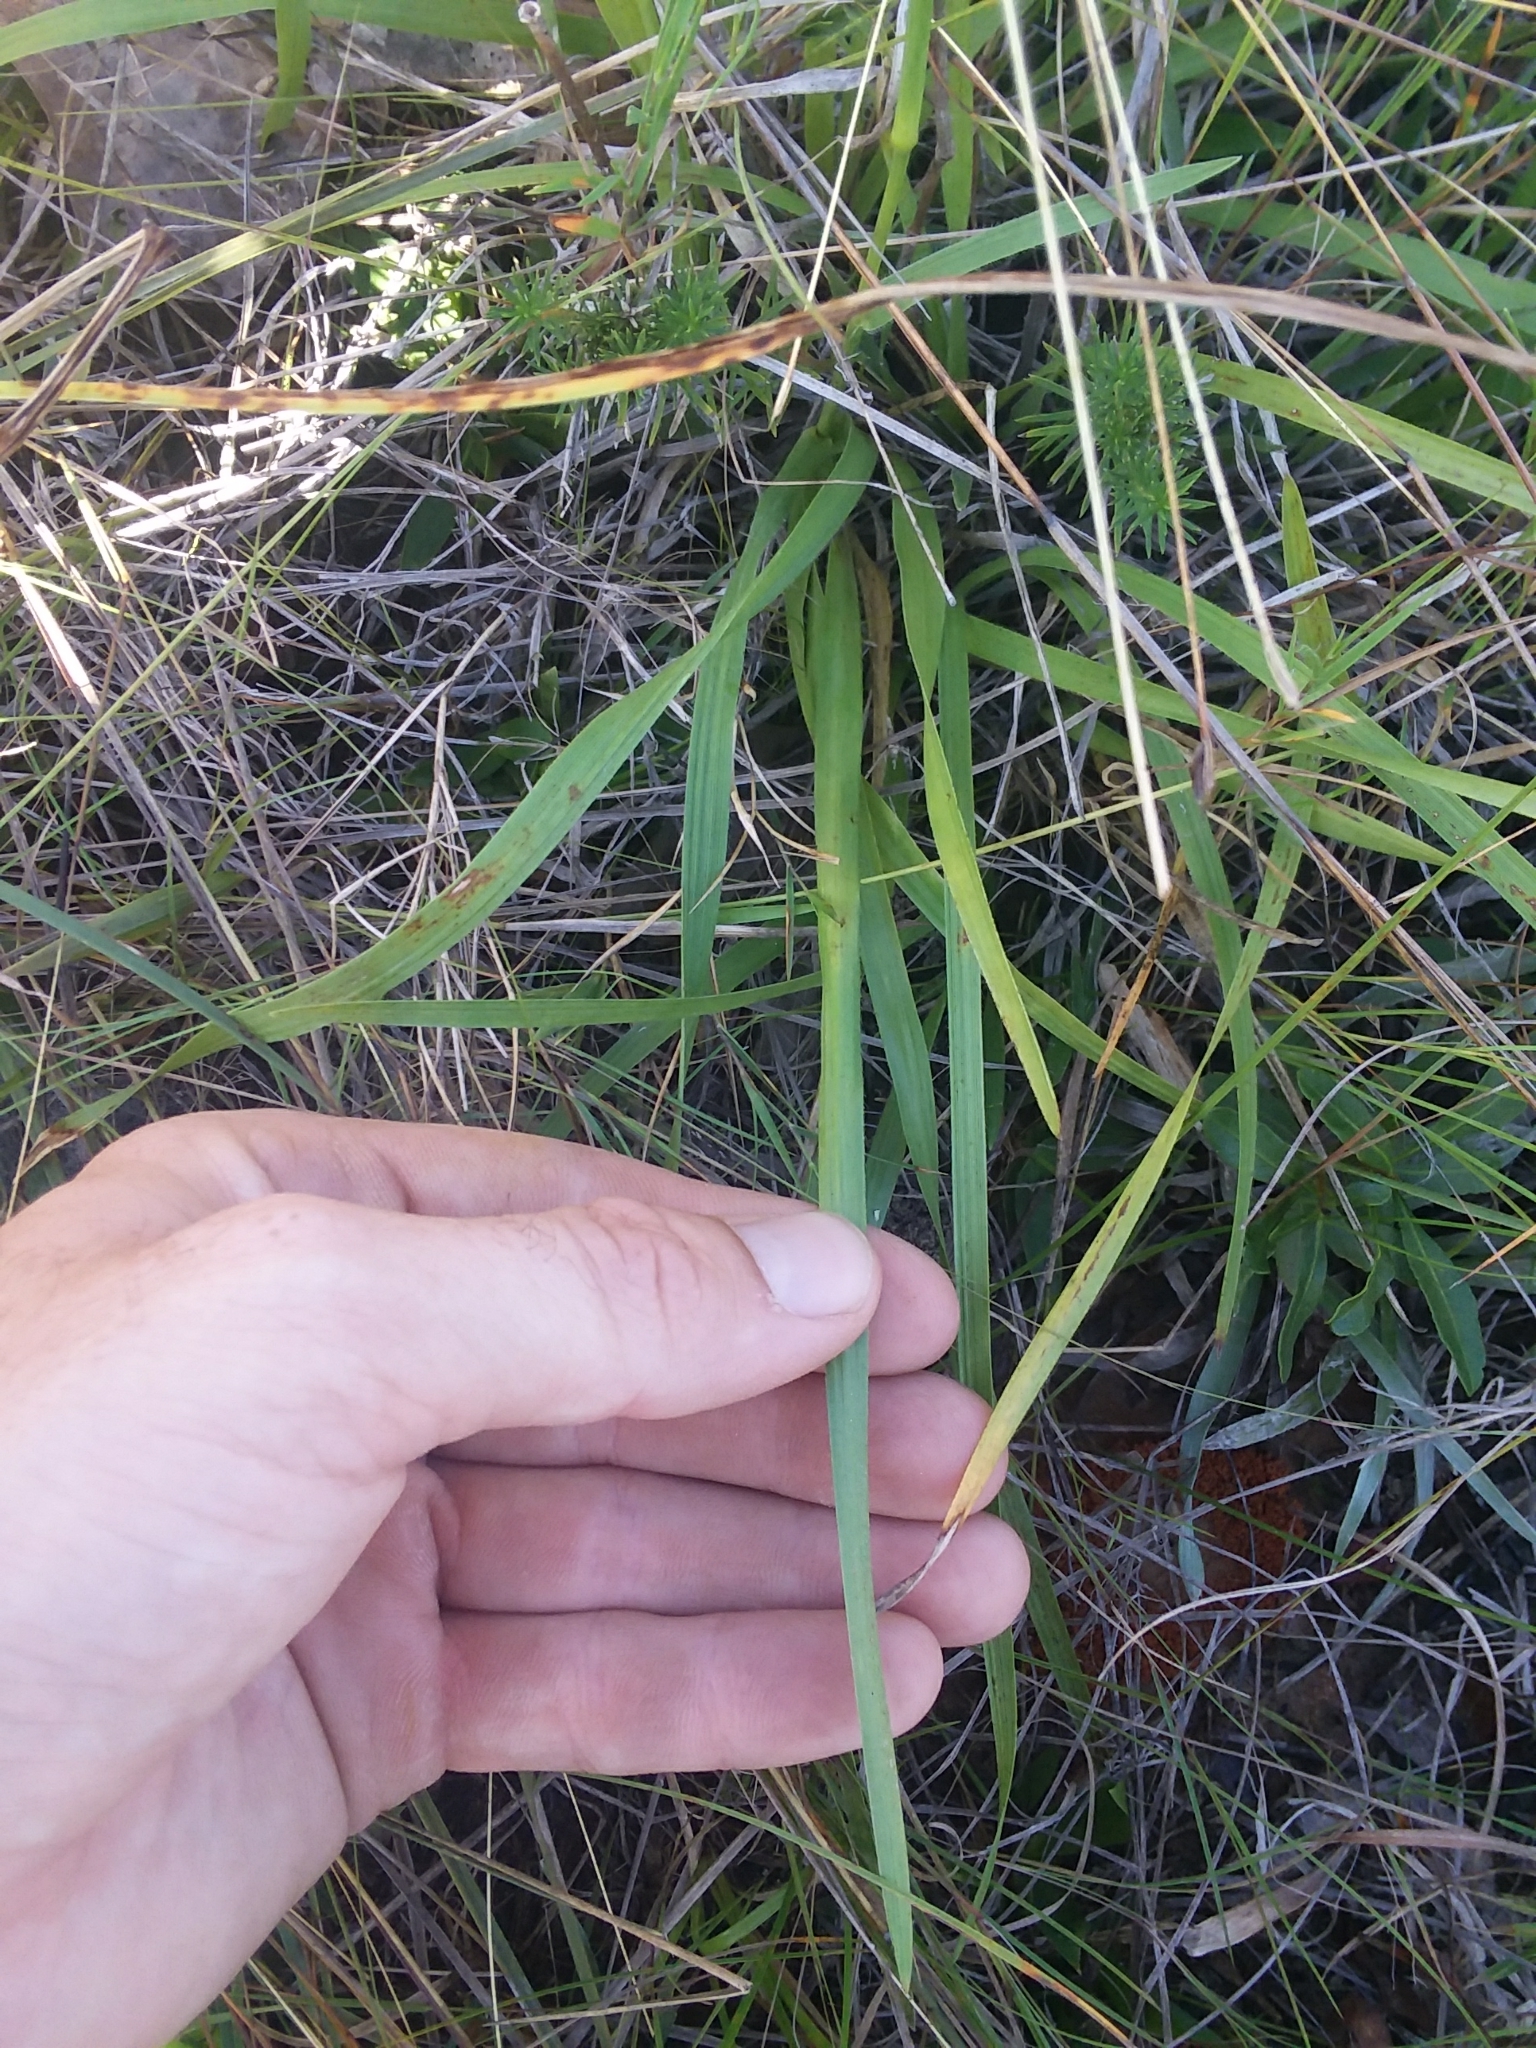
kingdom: Plantae
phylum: Tracheophyta
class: Liliopsida
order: Poales
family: Poaceae
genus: Anthenantia
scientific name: Anthenantia villosa
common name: Green silkyscale
